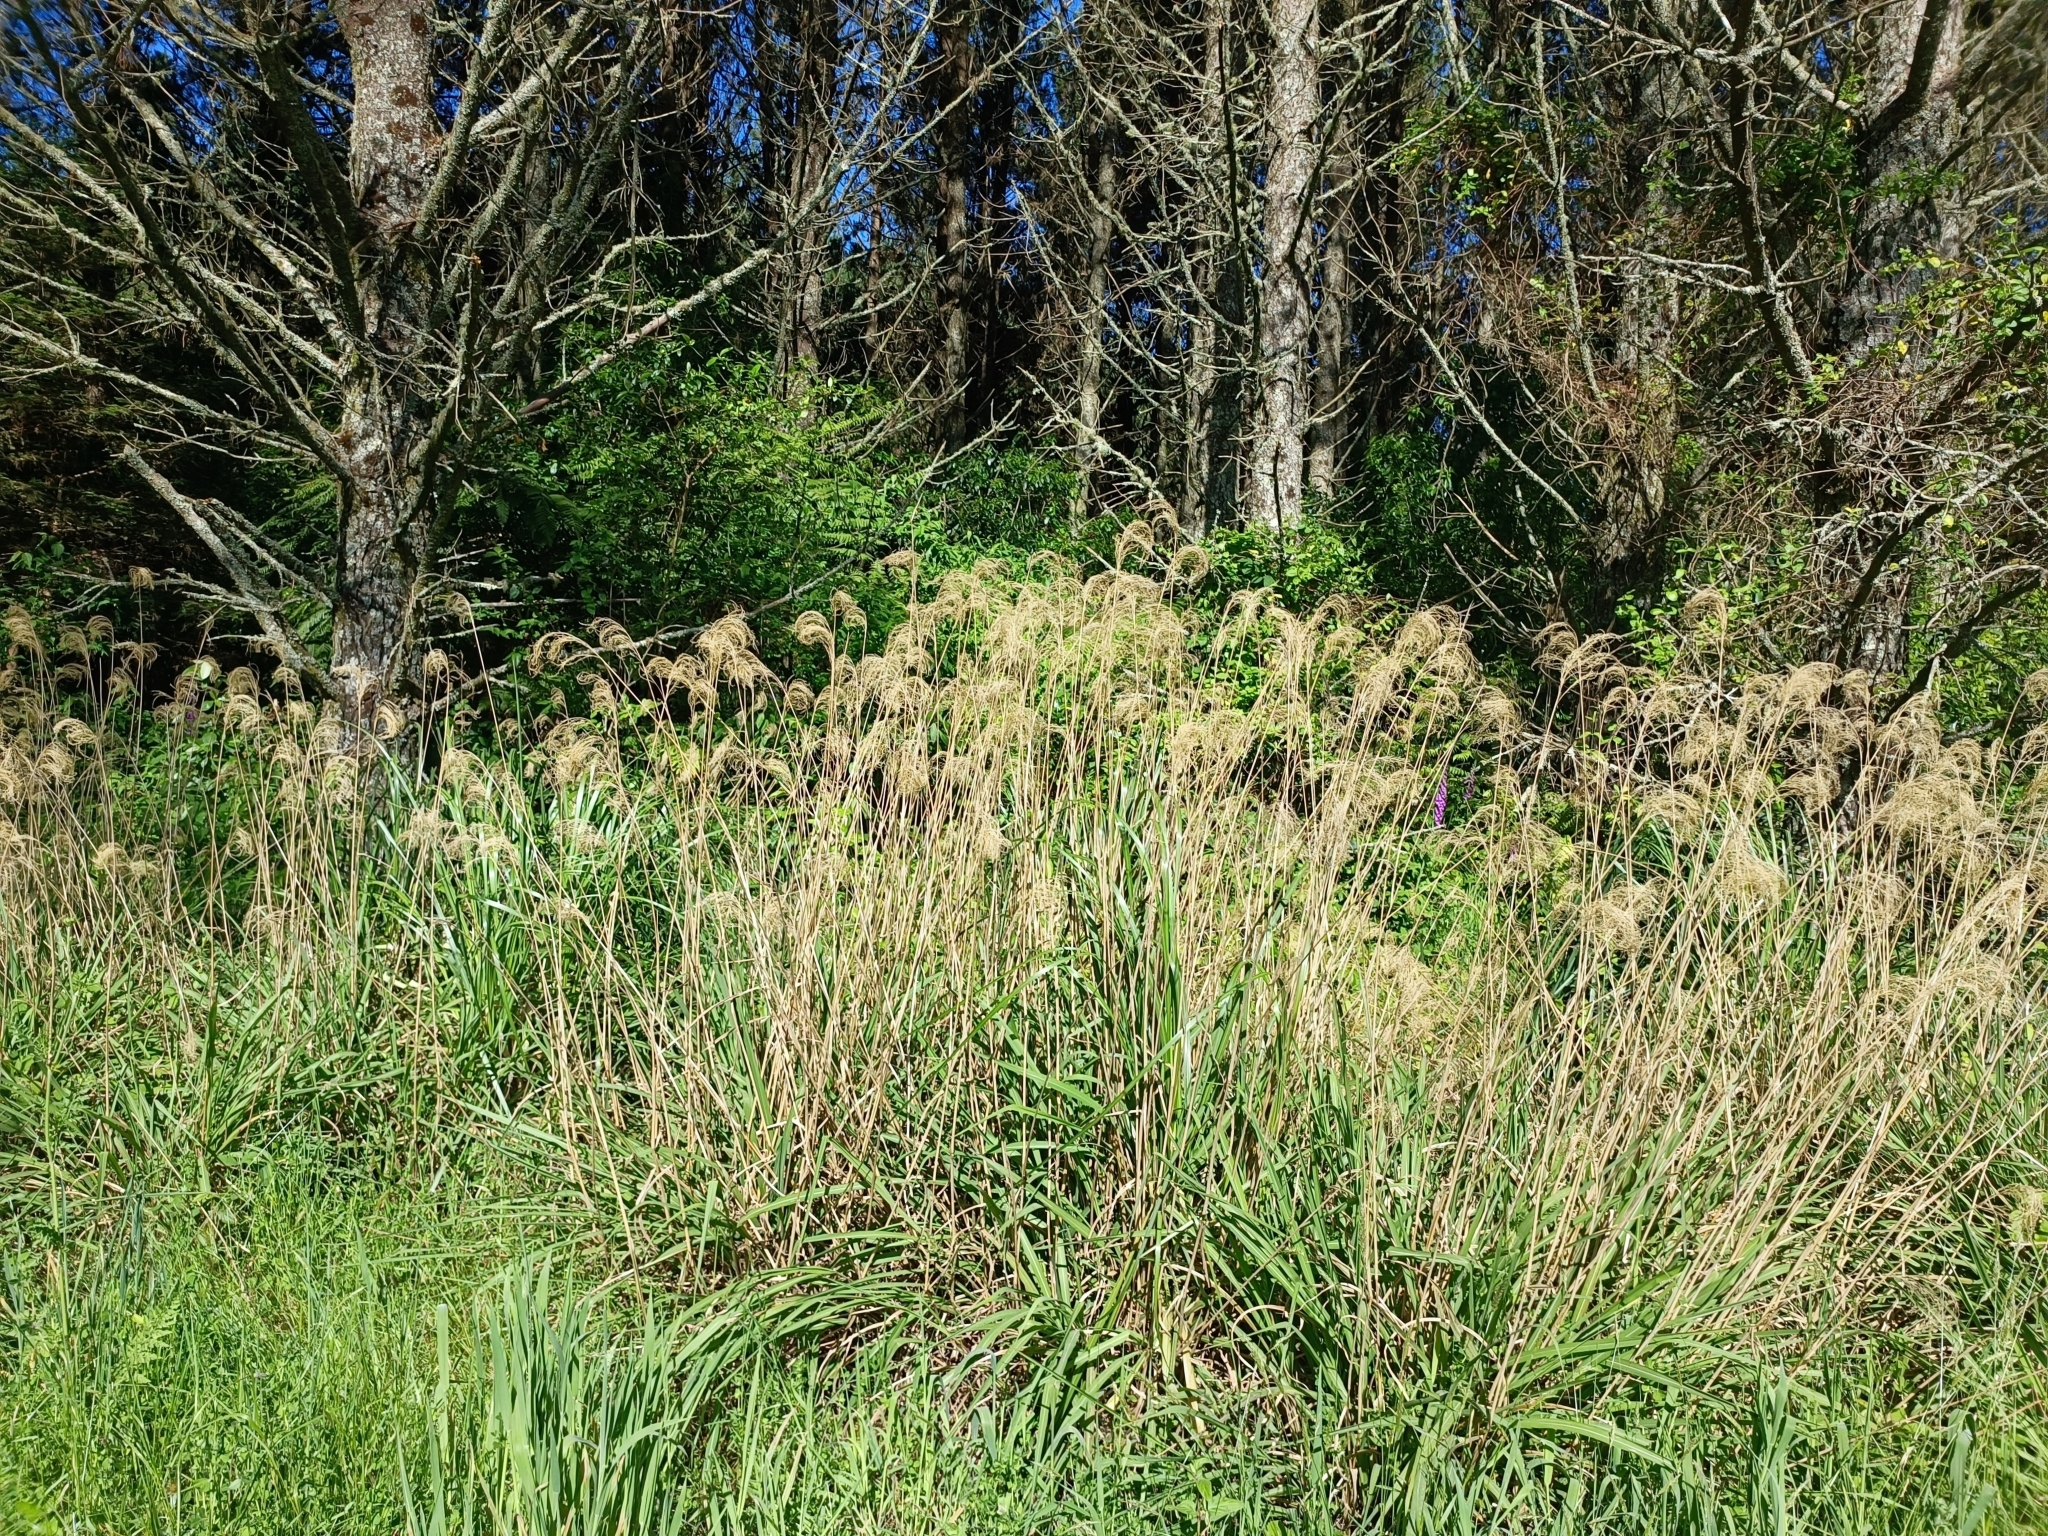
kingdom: Plantae
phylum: Tracheophyta
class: Liliopsida
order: Poales
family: Poaceae
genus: Miscanthus
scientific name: Miscanthus nepalensis
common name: Nepal silver grass
